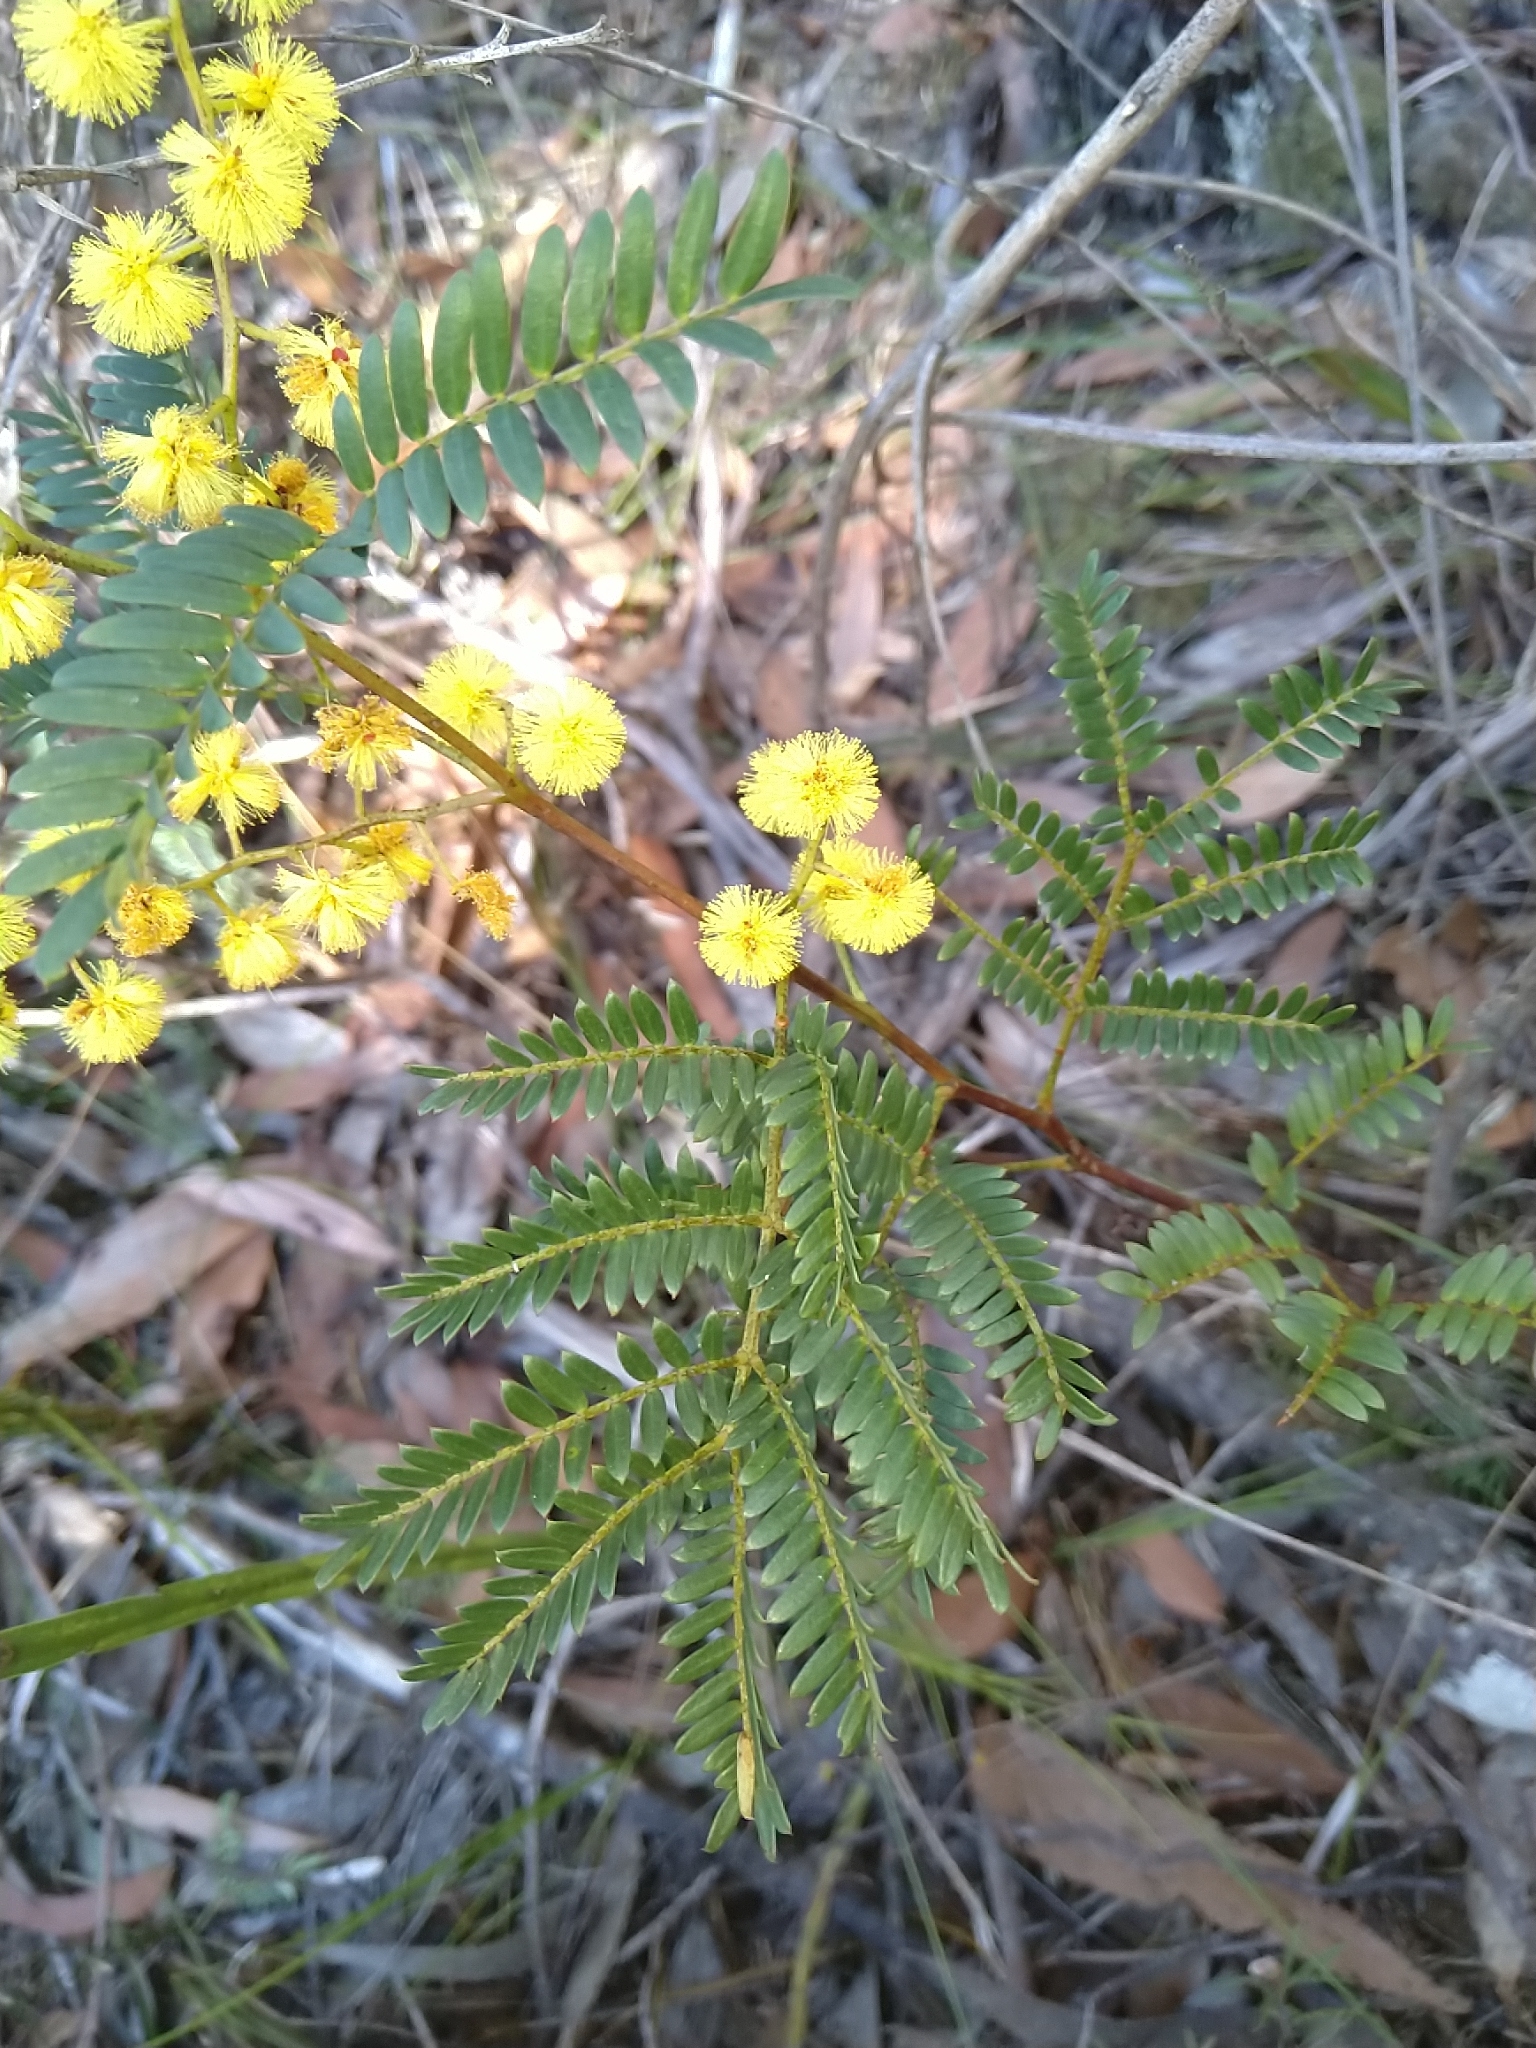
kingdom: Plantae
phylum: Tracheophyta
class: Magnoliopsida
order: Fabales
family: Fabaceae
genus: Acacia
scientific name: Acacia terminalis
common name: Cedar wattle
